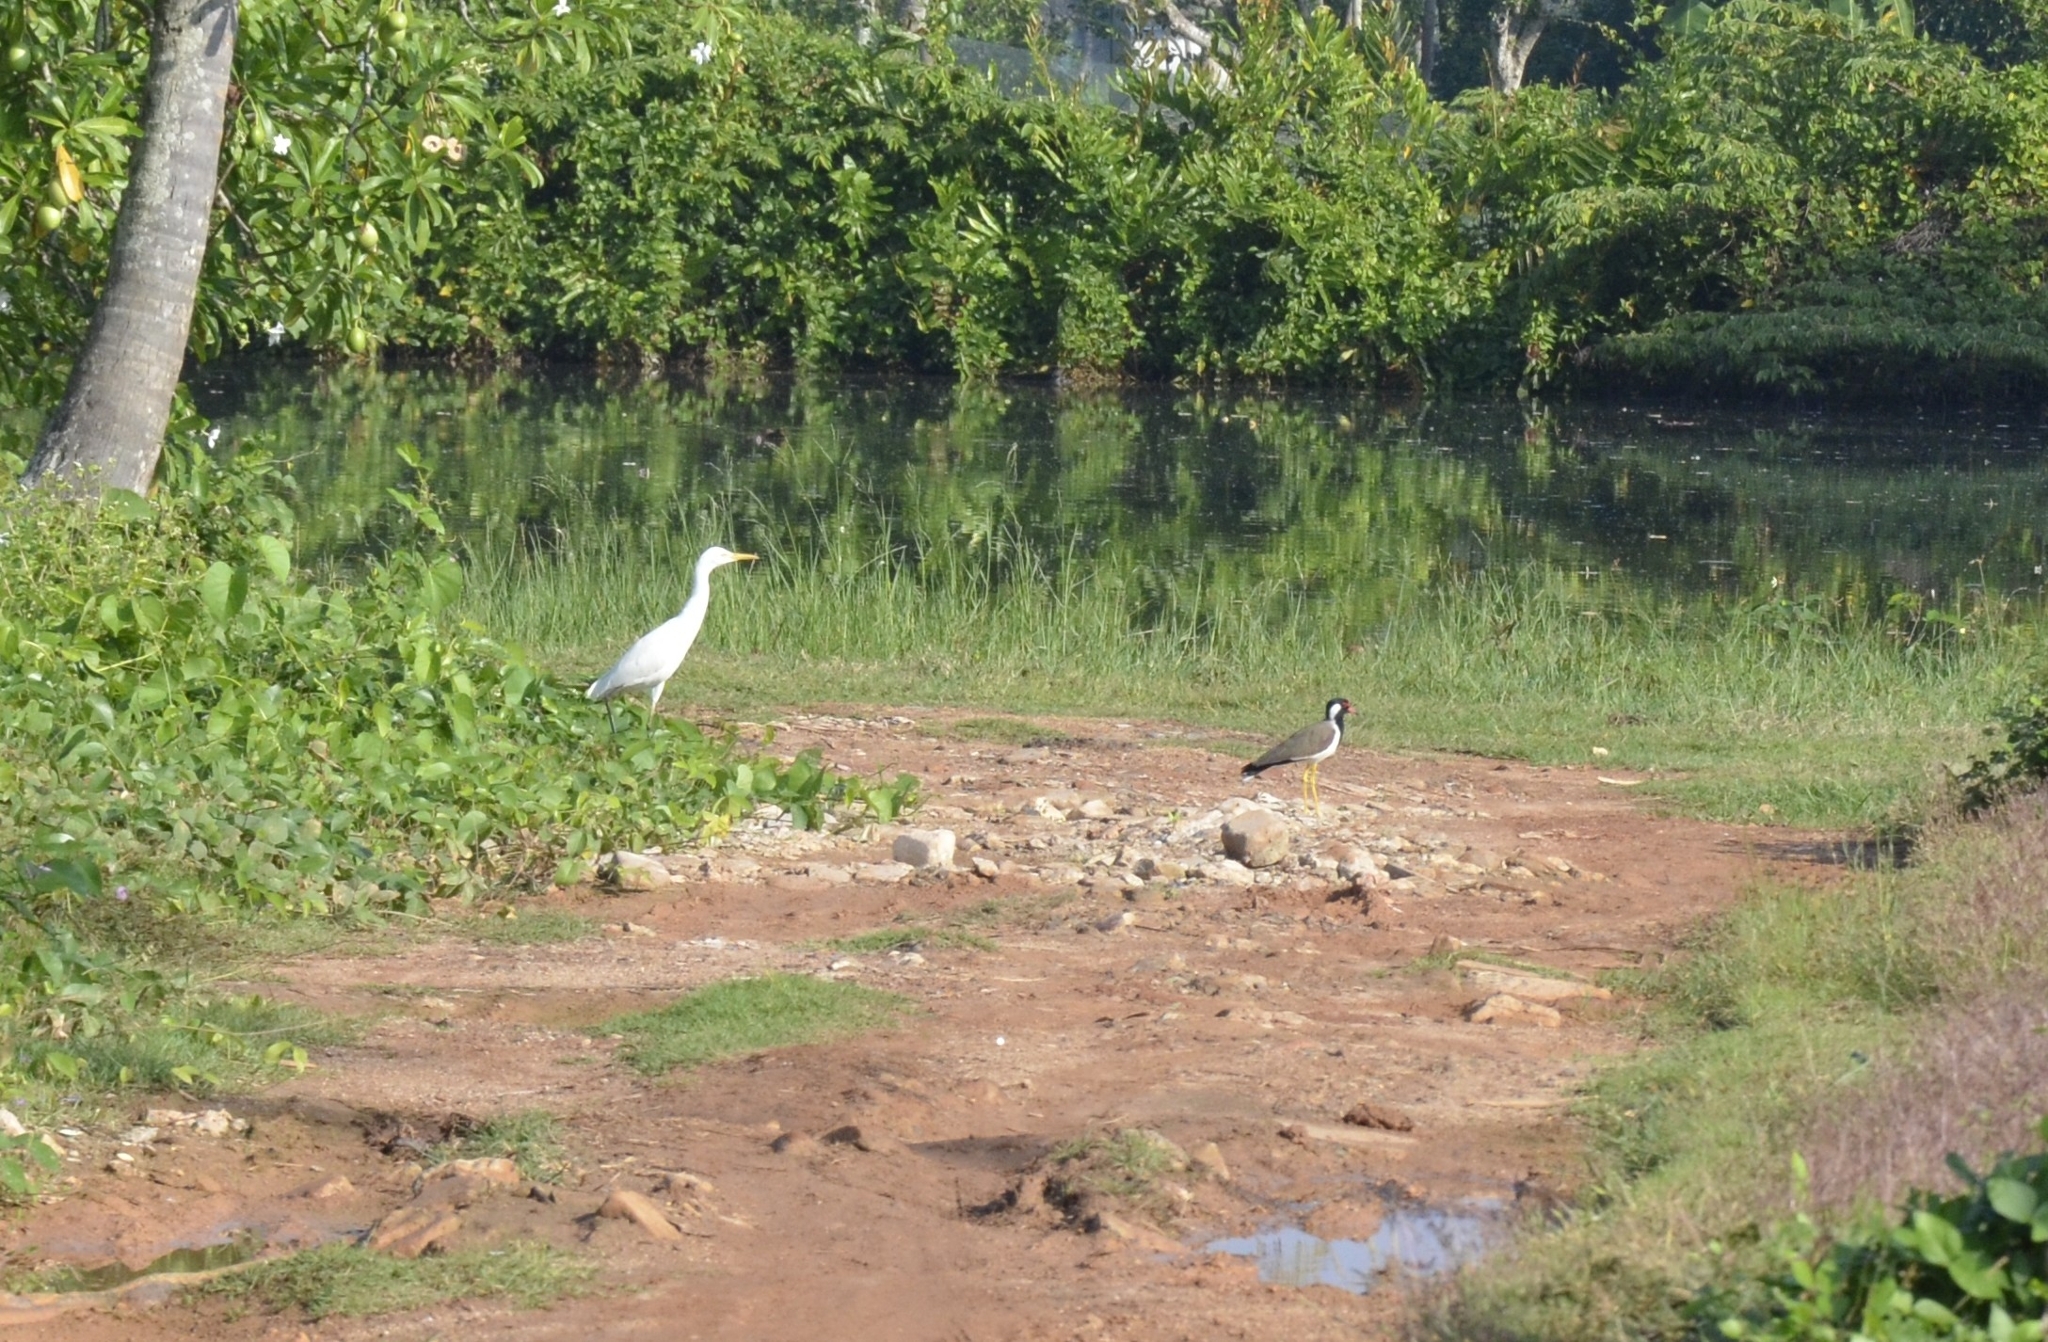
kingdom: Animalia
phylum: Chordata
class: Aves
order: Charadriiformes
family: Charadriidae
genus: Vanellus
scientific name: Vanellus indicus
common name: Red-wattled lapwing
